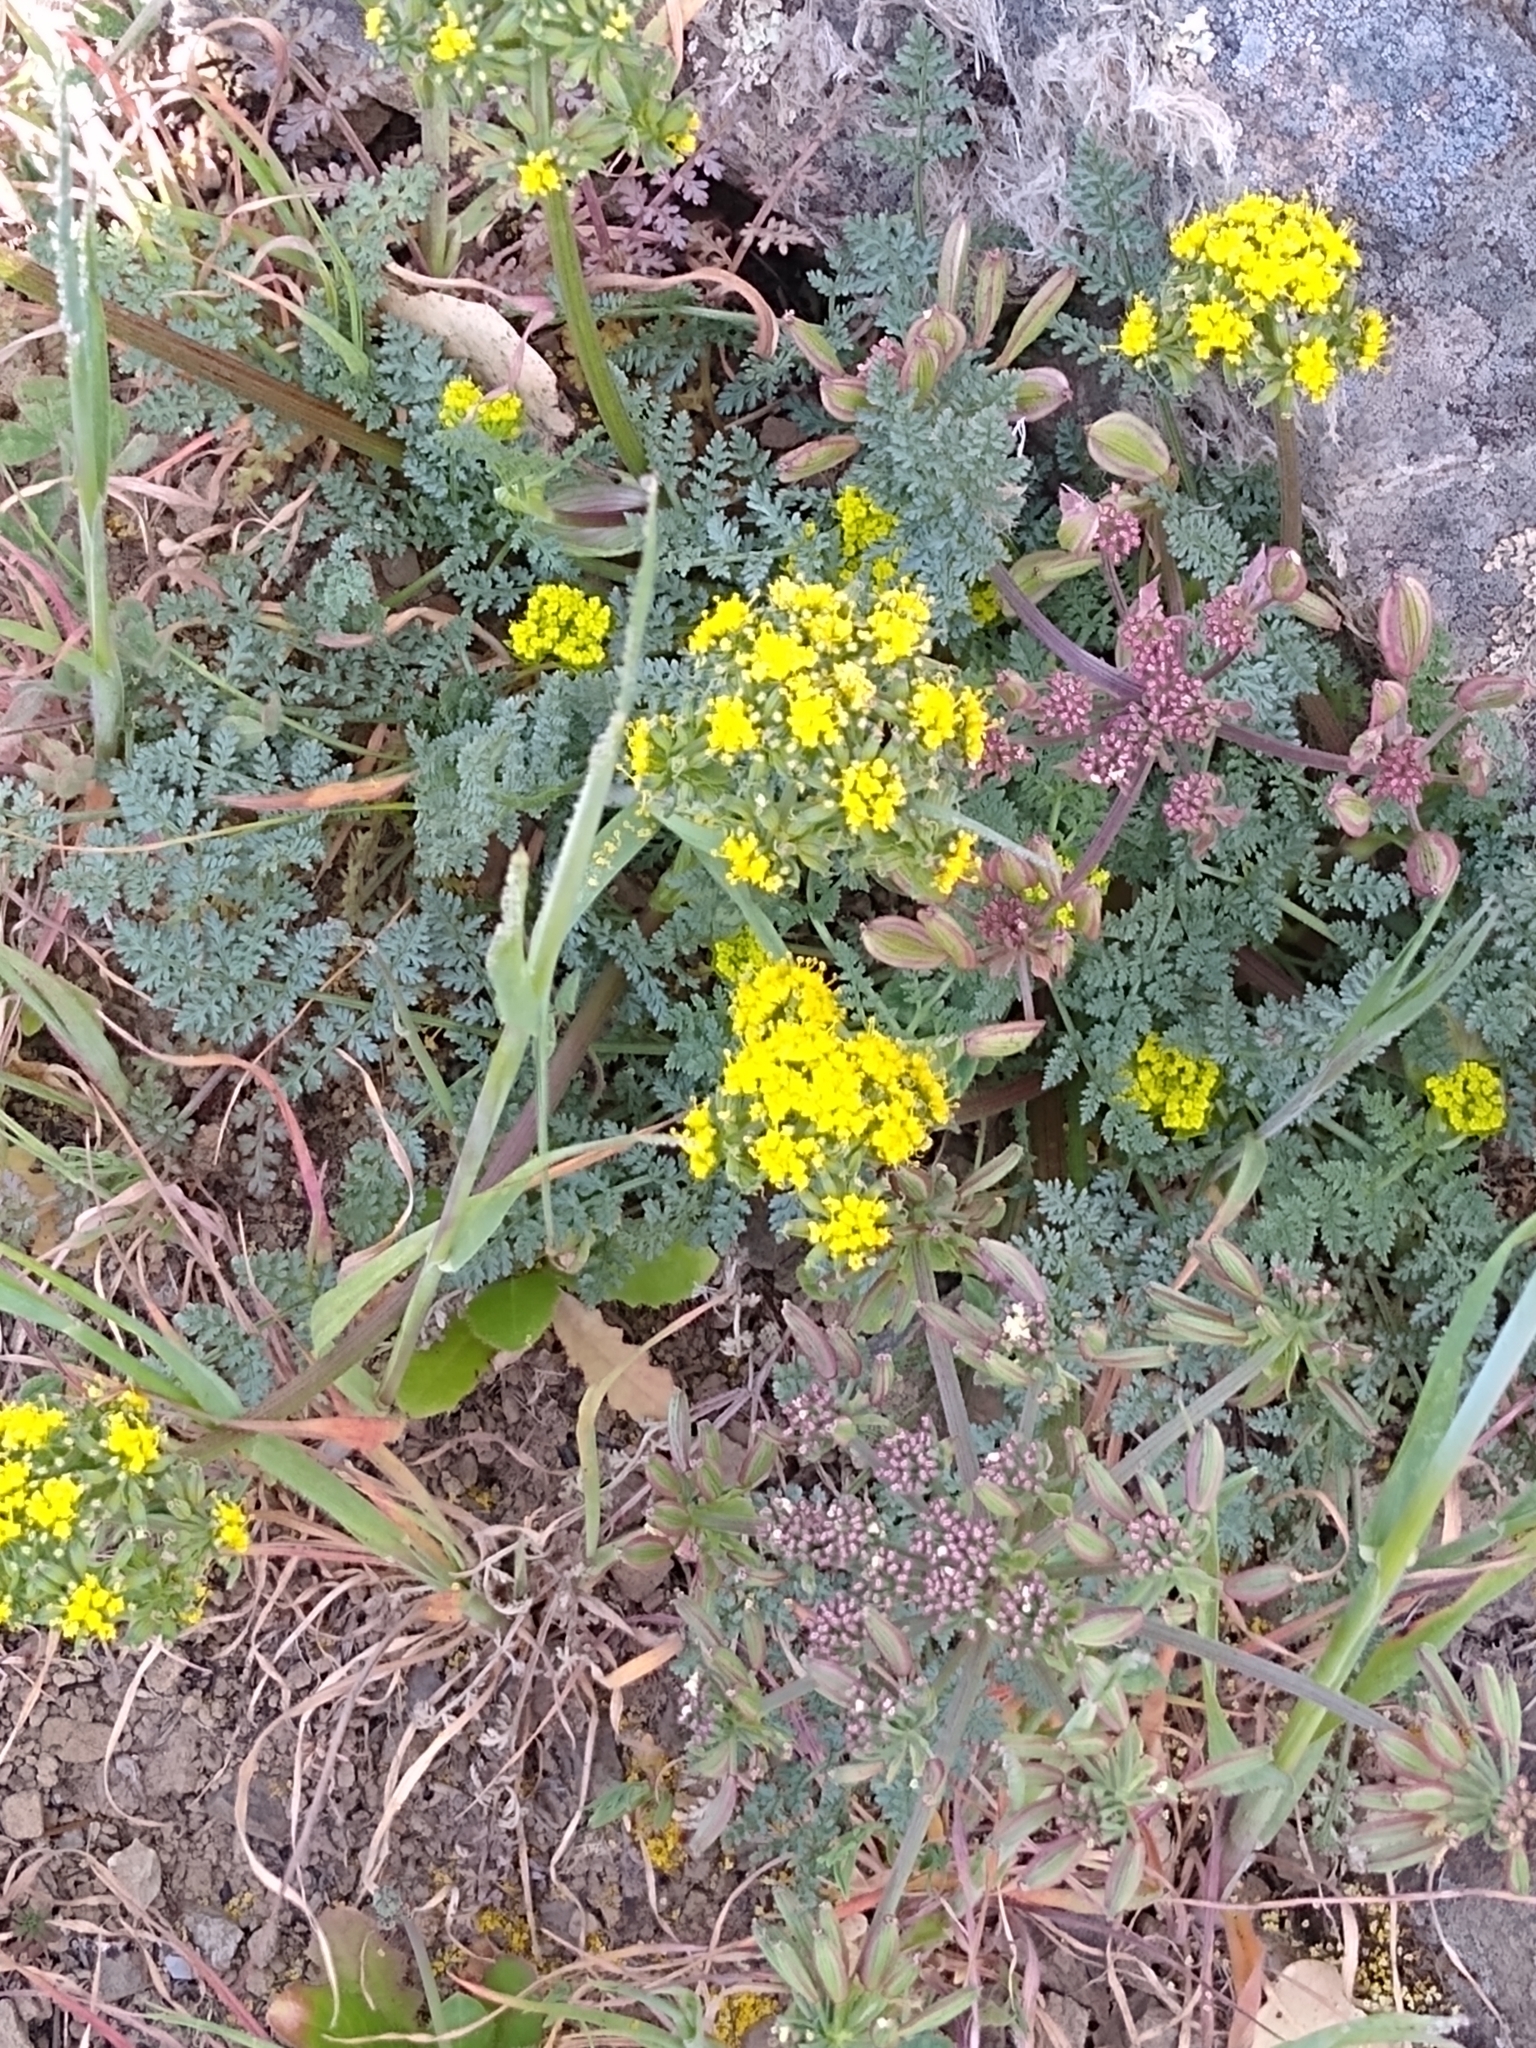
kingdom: Plantae
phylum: Tracheophyta
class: Magnoliopsida
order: Apiales
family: Apiaceae
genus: Lomatium
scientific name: Lomatium utriculatum
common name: Fine-leaf desert-parsley
